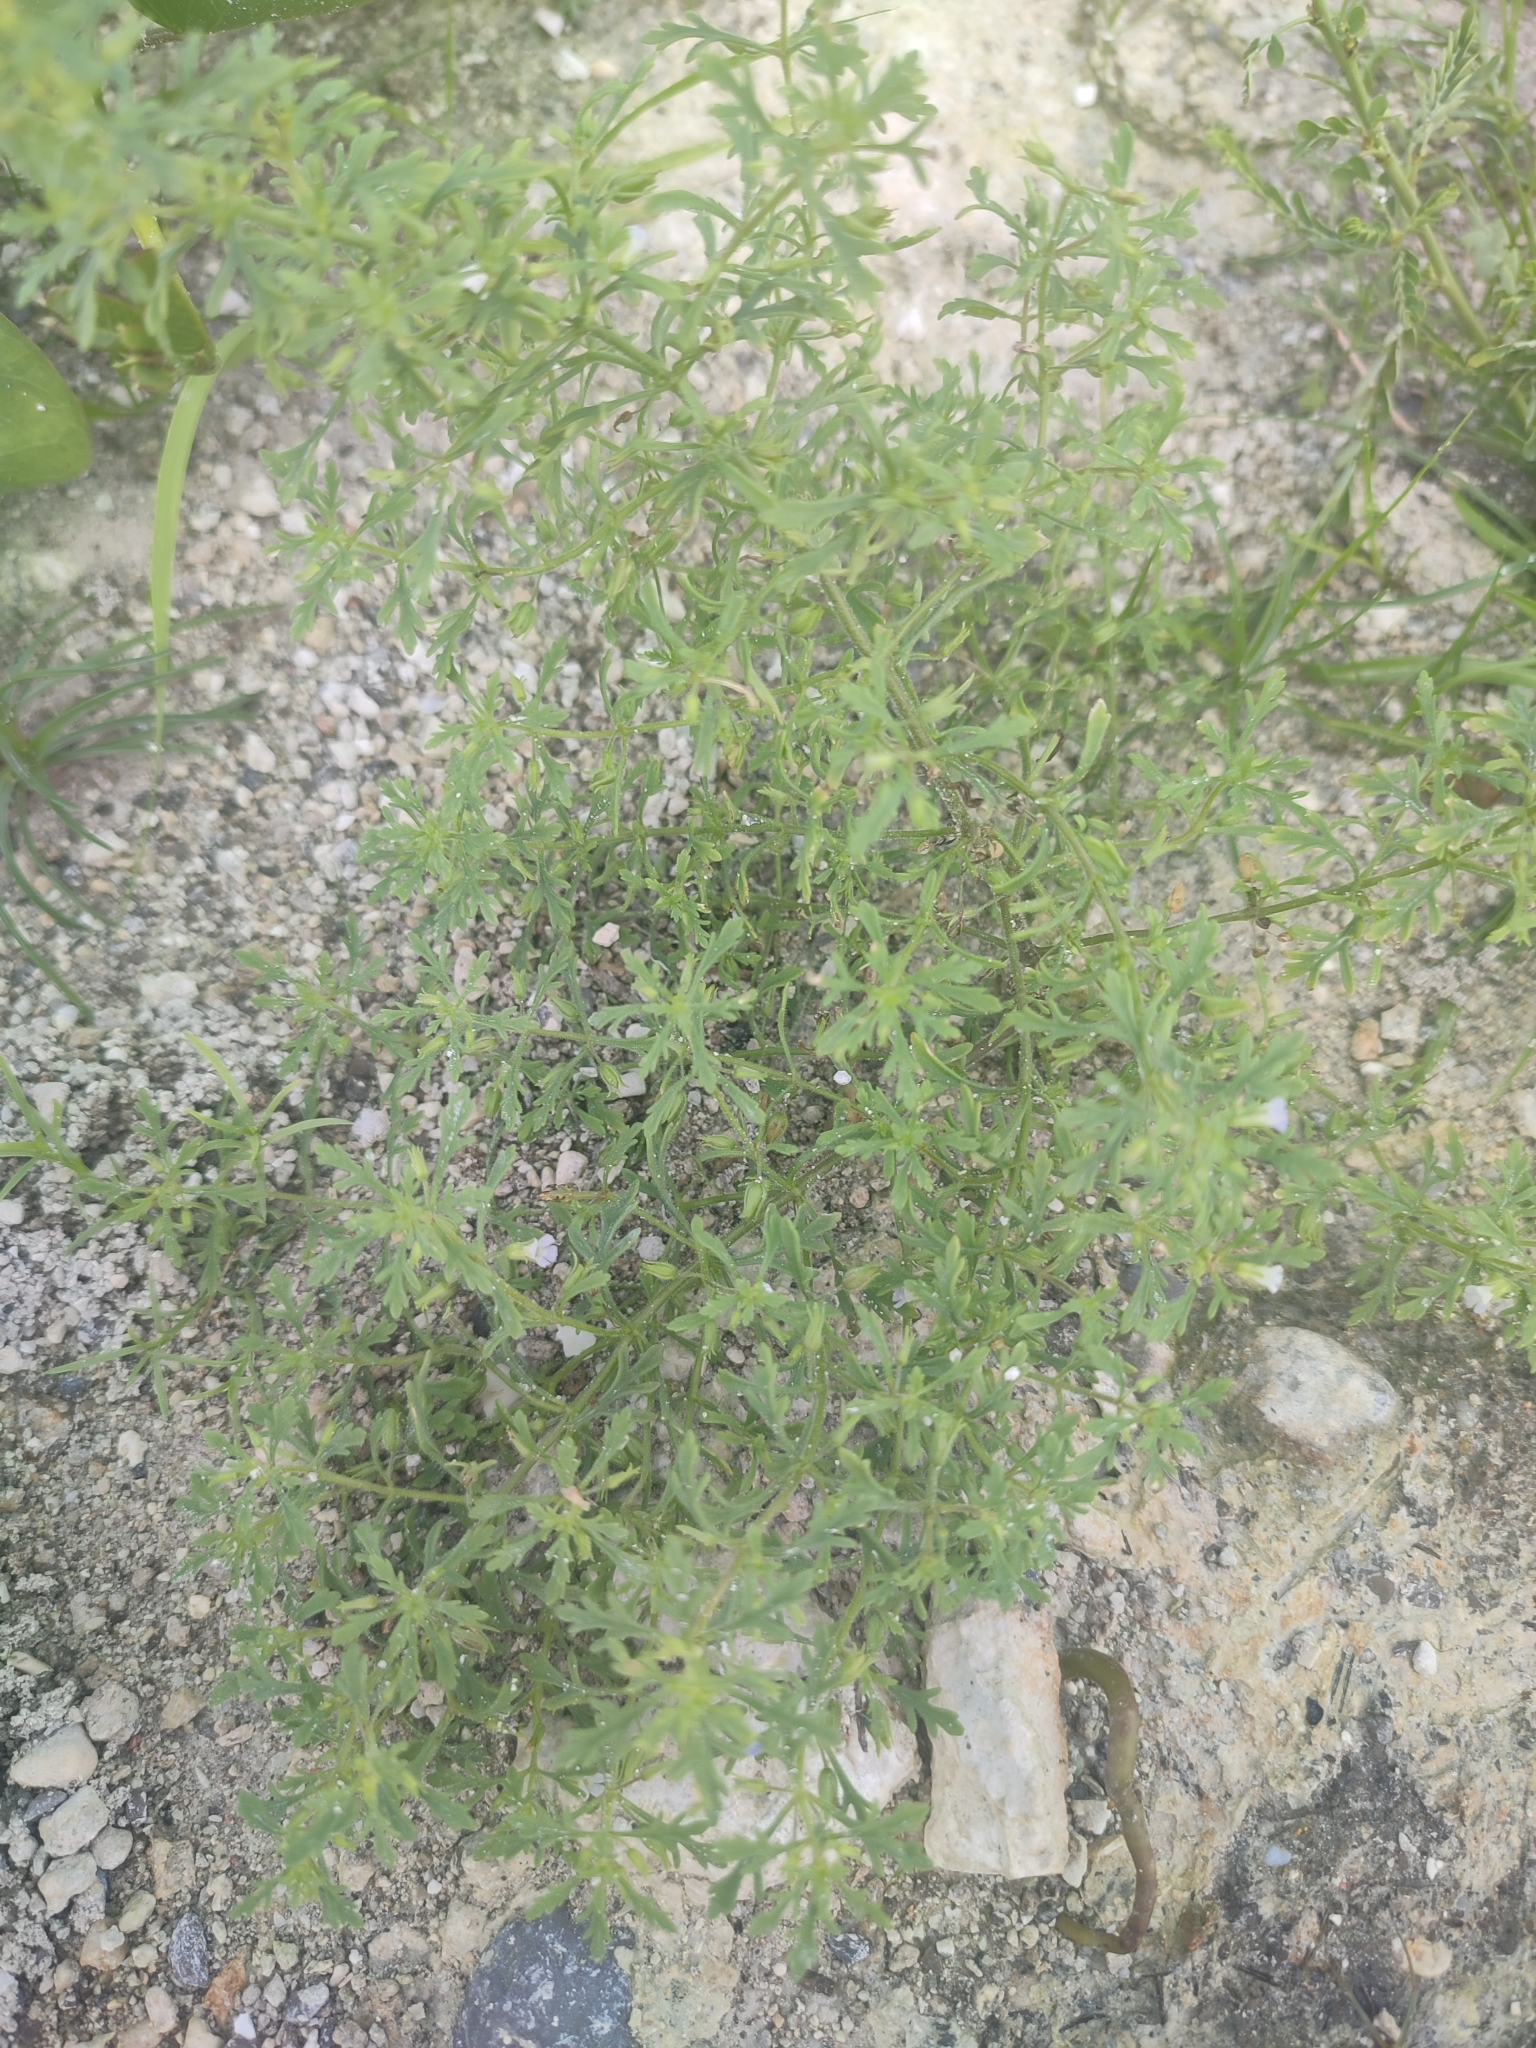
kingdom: Plantae
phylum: Tracheophyta
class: Magnoliopsida
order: Lamiales
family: Plantaginaceae
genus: Leucospora
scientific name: Leucospora multifida
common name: Narrow-leaf paleseed
